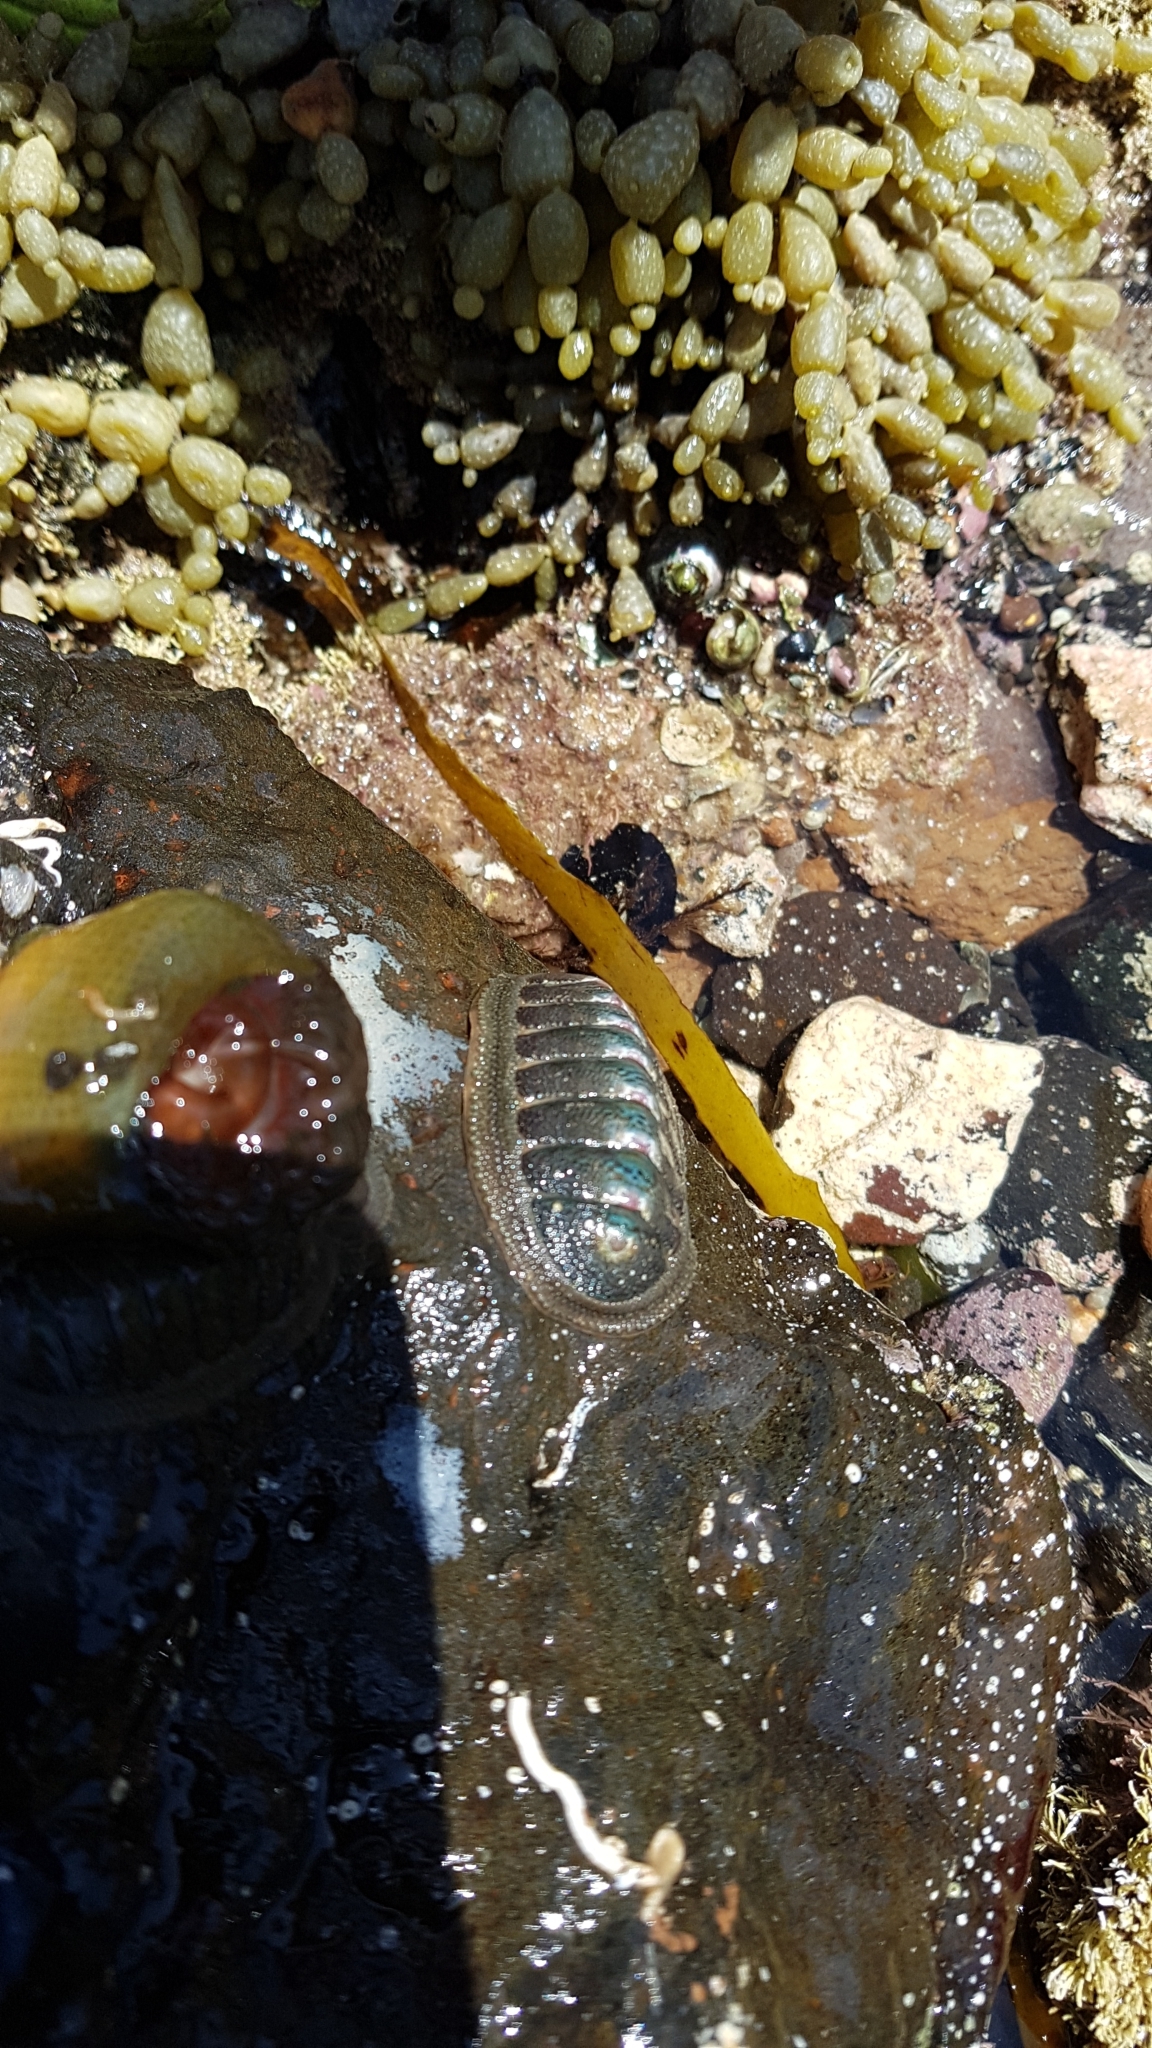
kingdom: Animalia
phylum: Mollusca
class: Polyplacophora
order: Chitonida
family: Ischnochitonidae
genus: Ischnochiton
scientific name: Ischnochiton australis
